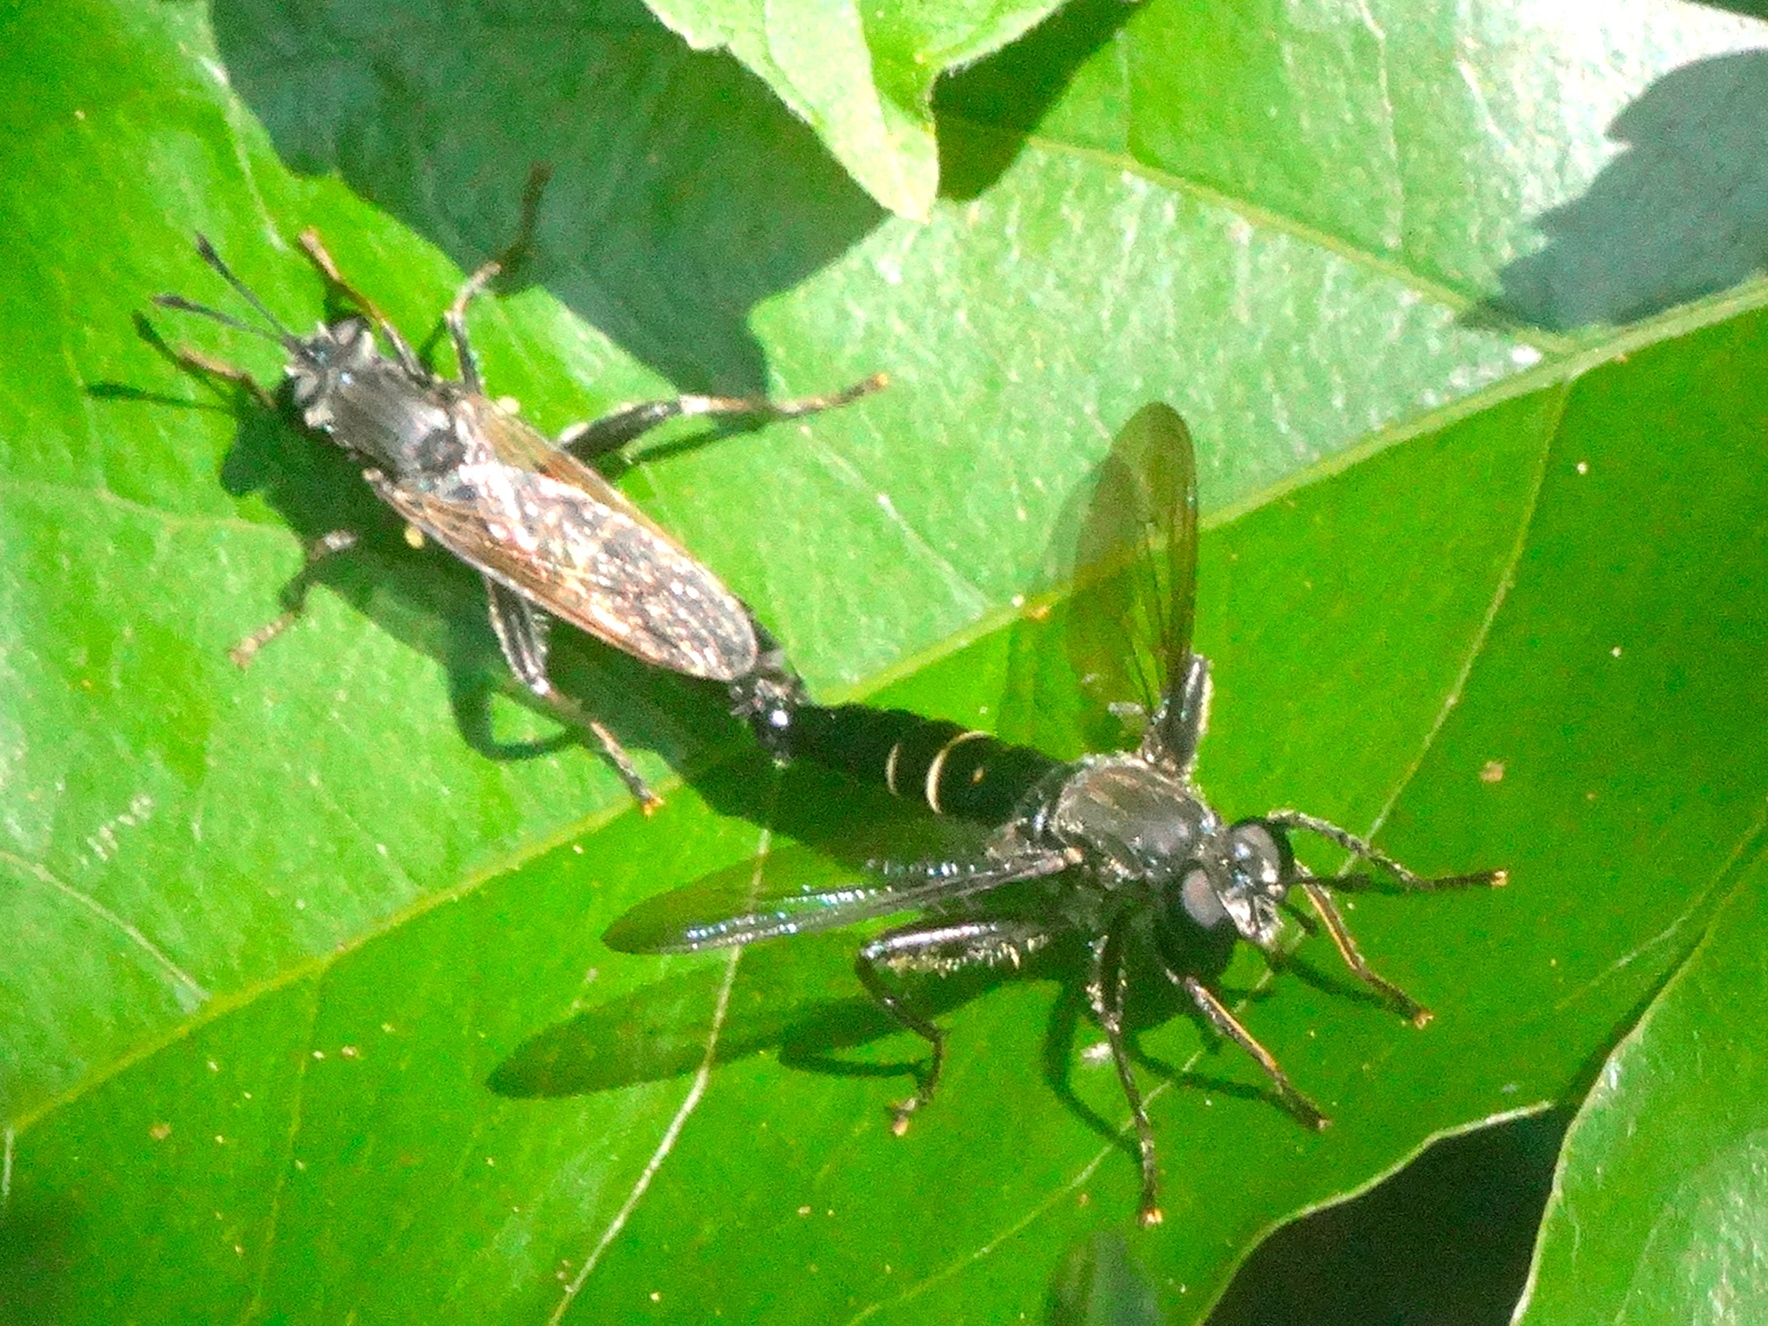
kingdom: Animalia
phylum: Arthropoda
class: Insecta
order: Diptera
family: Mydidae
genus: Mydas
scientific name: Mydas
